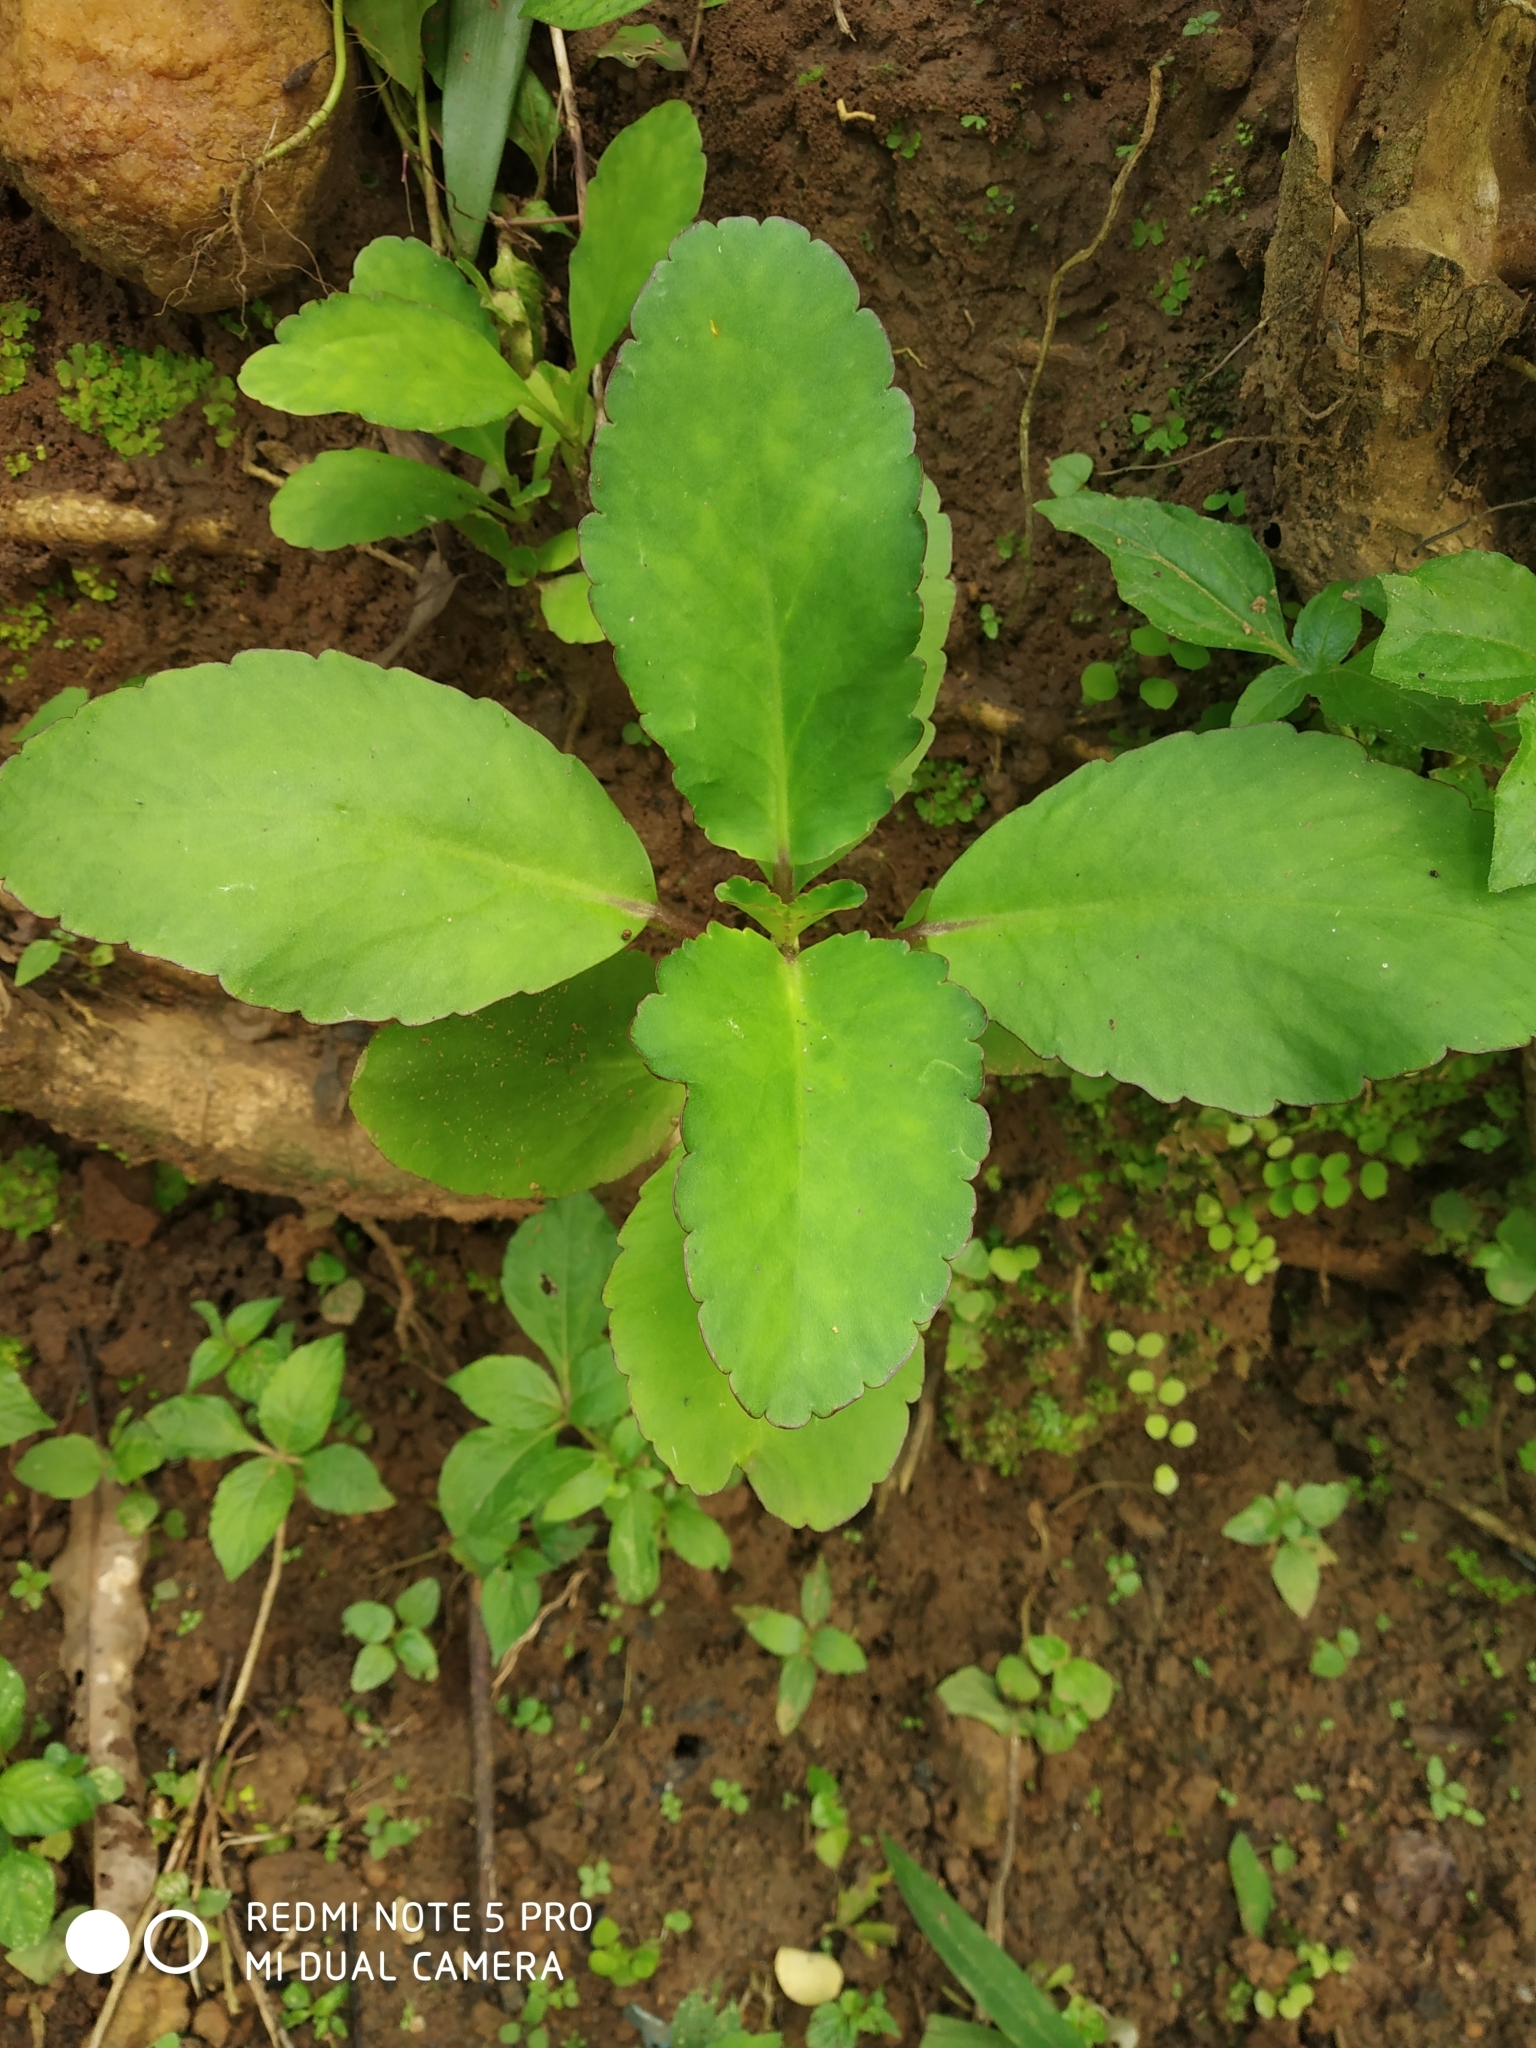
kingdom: Plantae
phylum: Tracheophyta
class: Magnoliopsida
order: Saxifragales
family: Crassulaceae
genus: Kalanchoe
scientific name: Kalanchoe pinnata
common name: Cathedral bells
